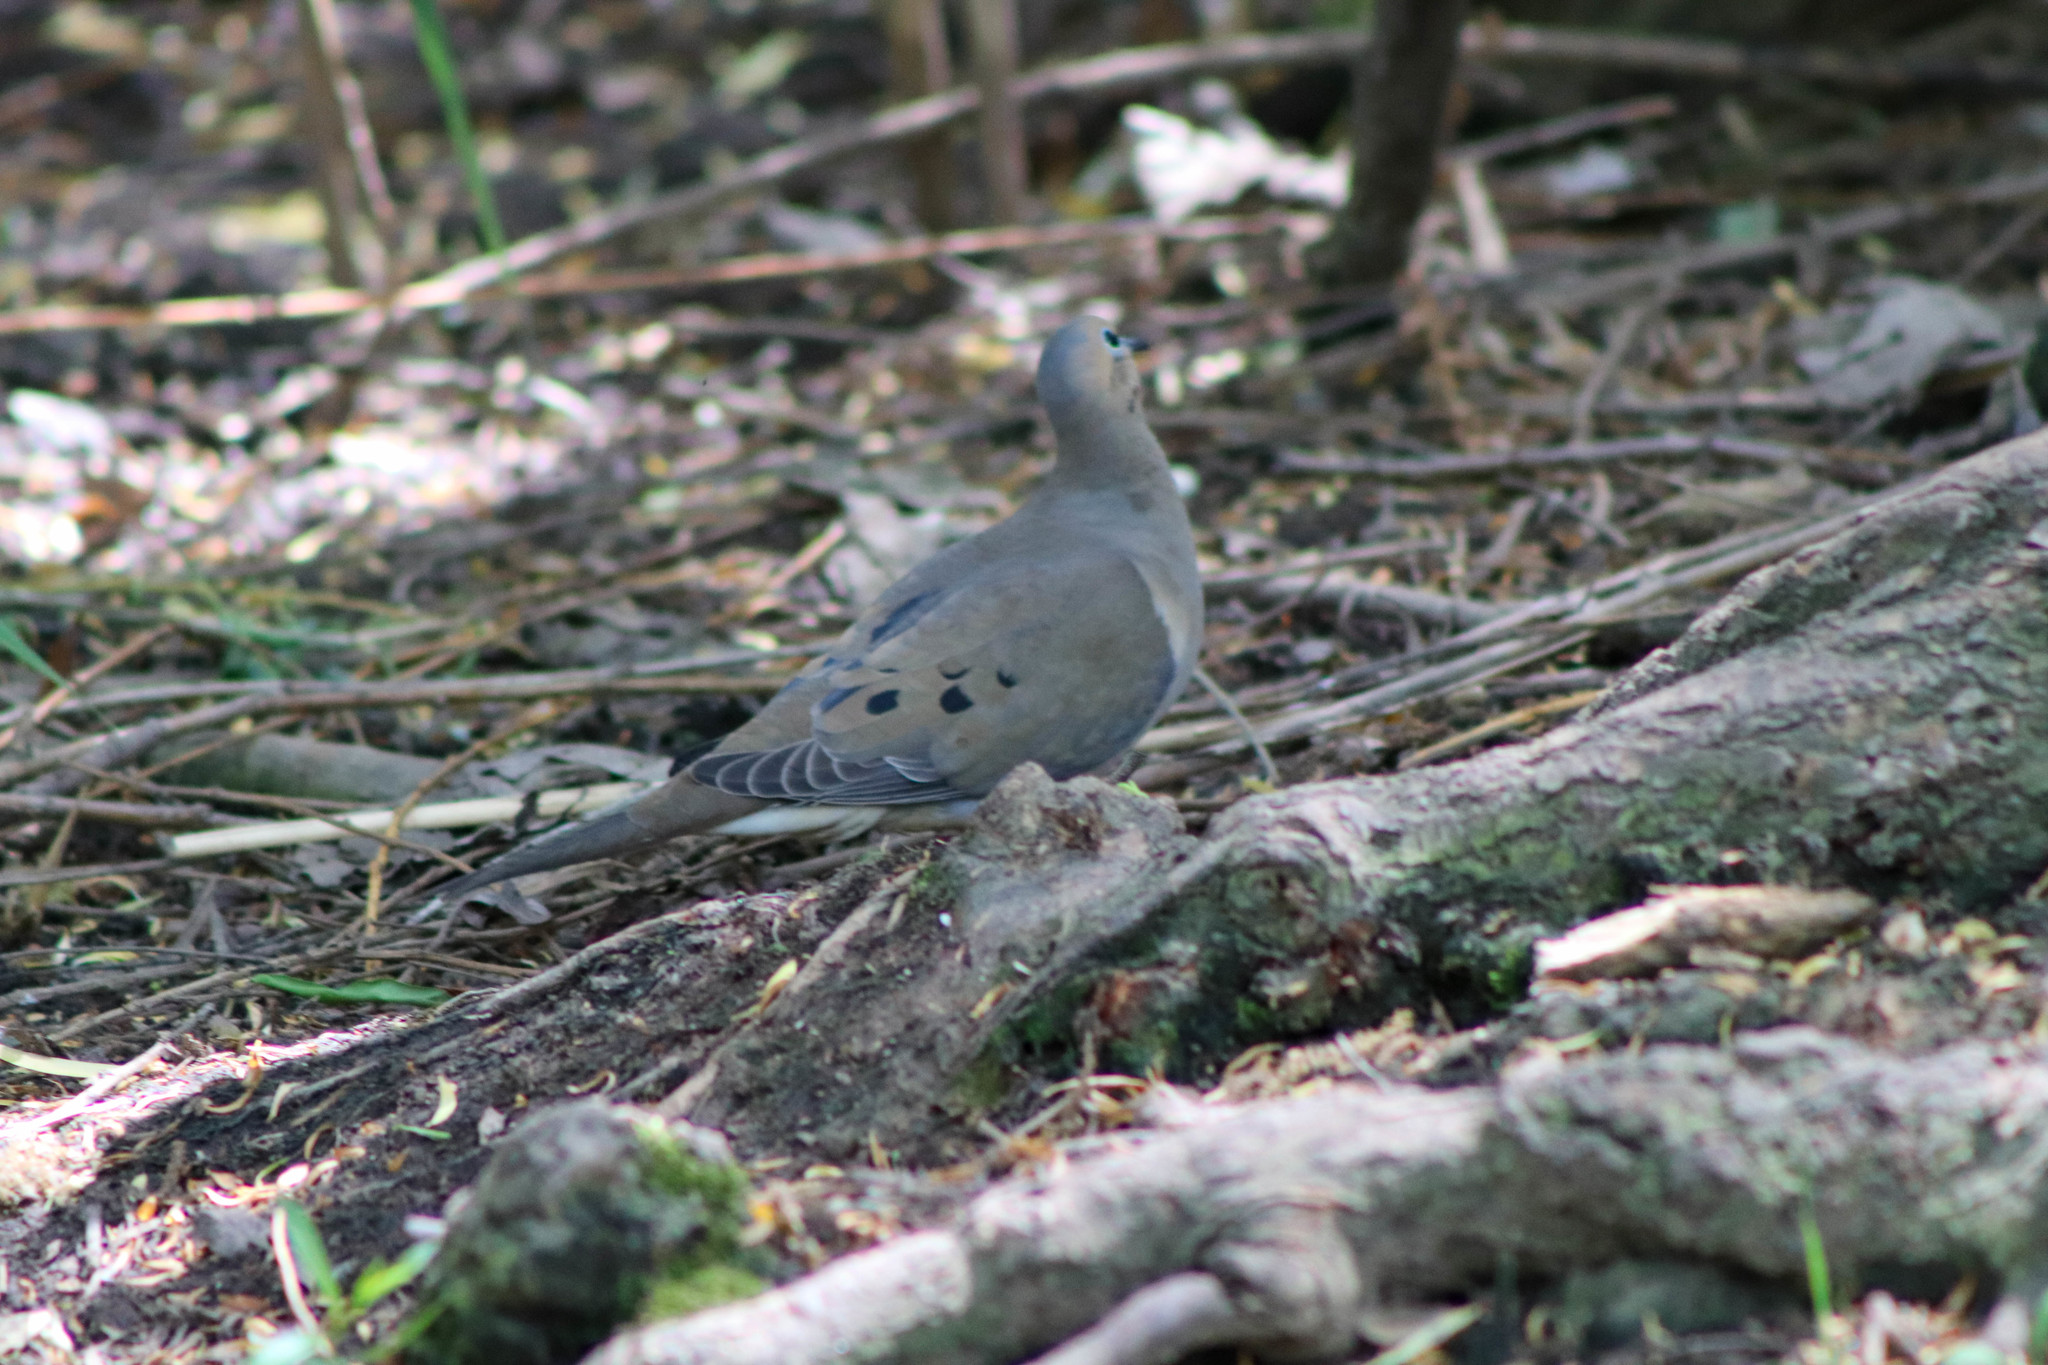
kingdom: Animalia
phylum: Chordata
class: Aves
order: Columbiformes
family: Columbidae
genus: Zenaida
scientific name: Zenaida macroura
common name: Mourning dove
